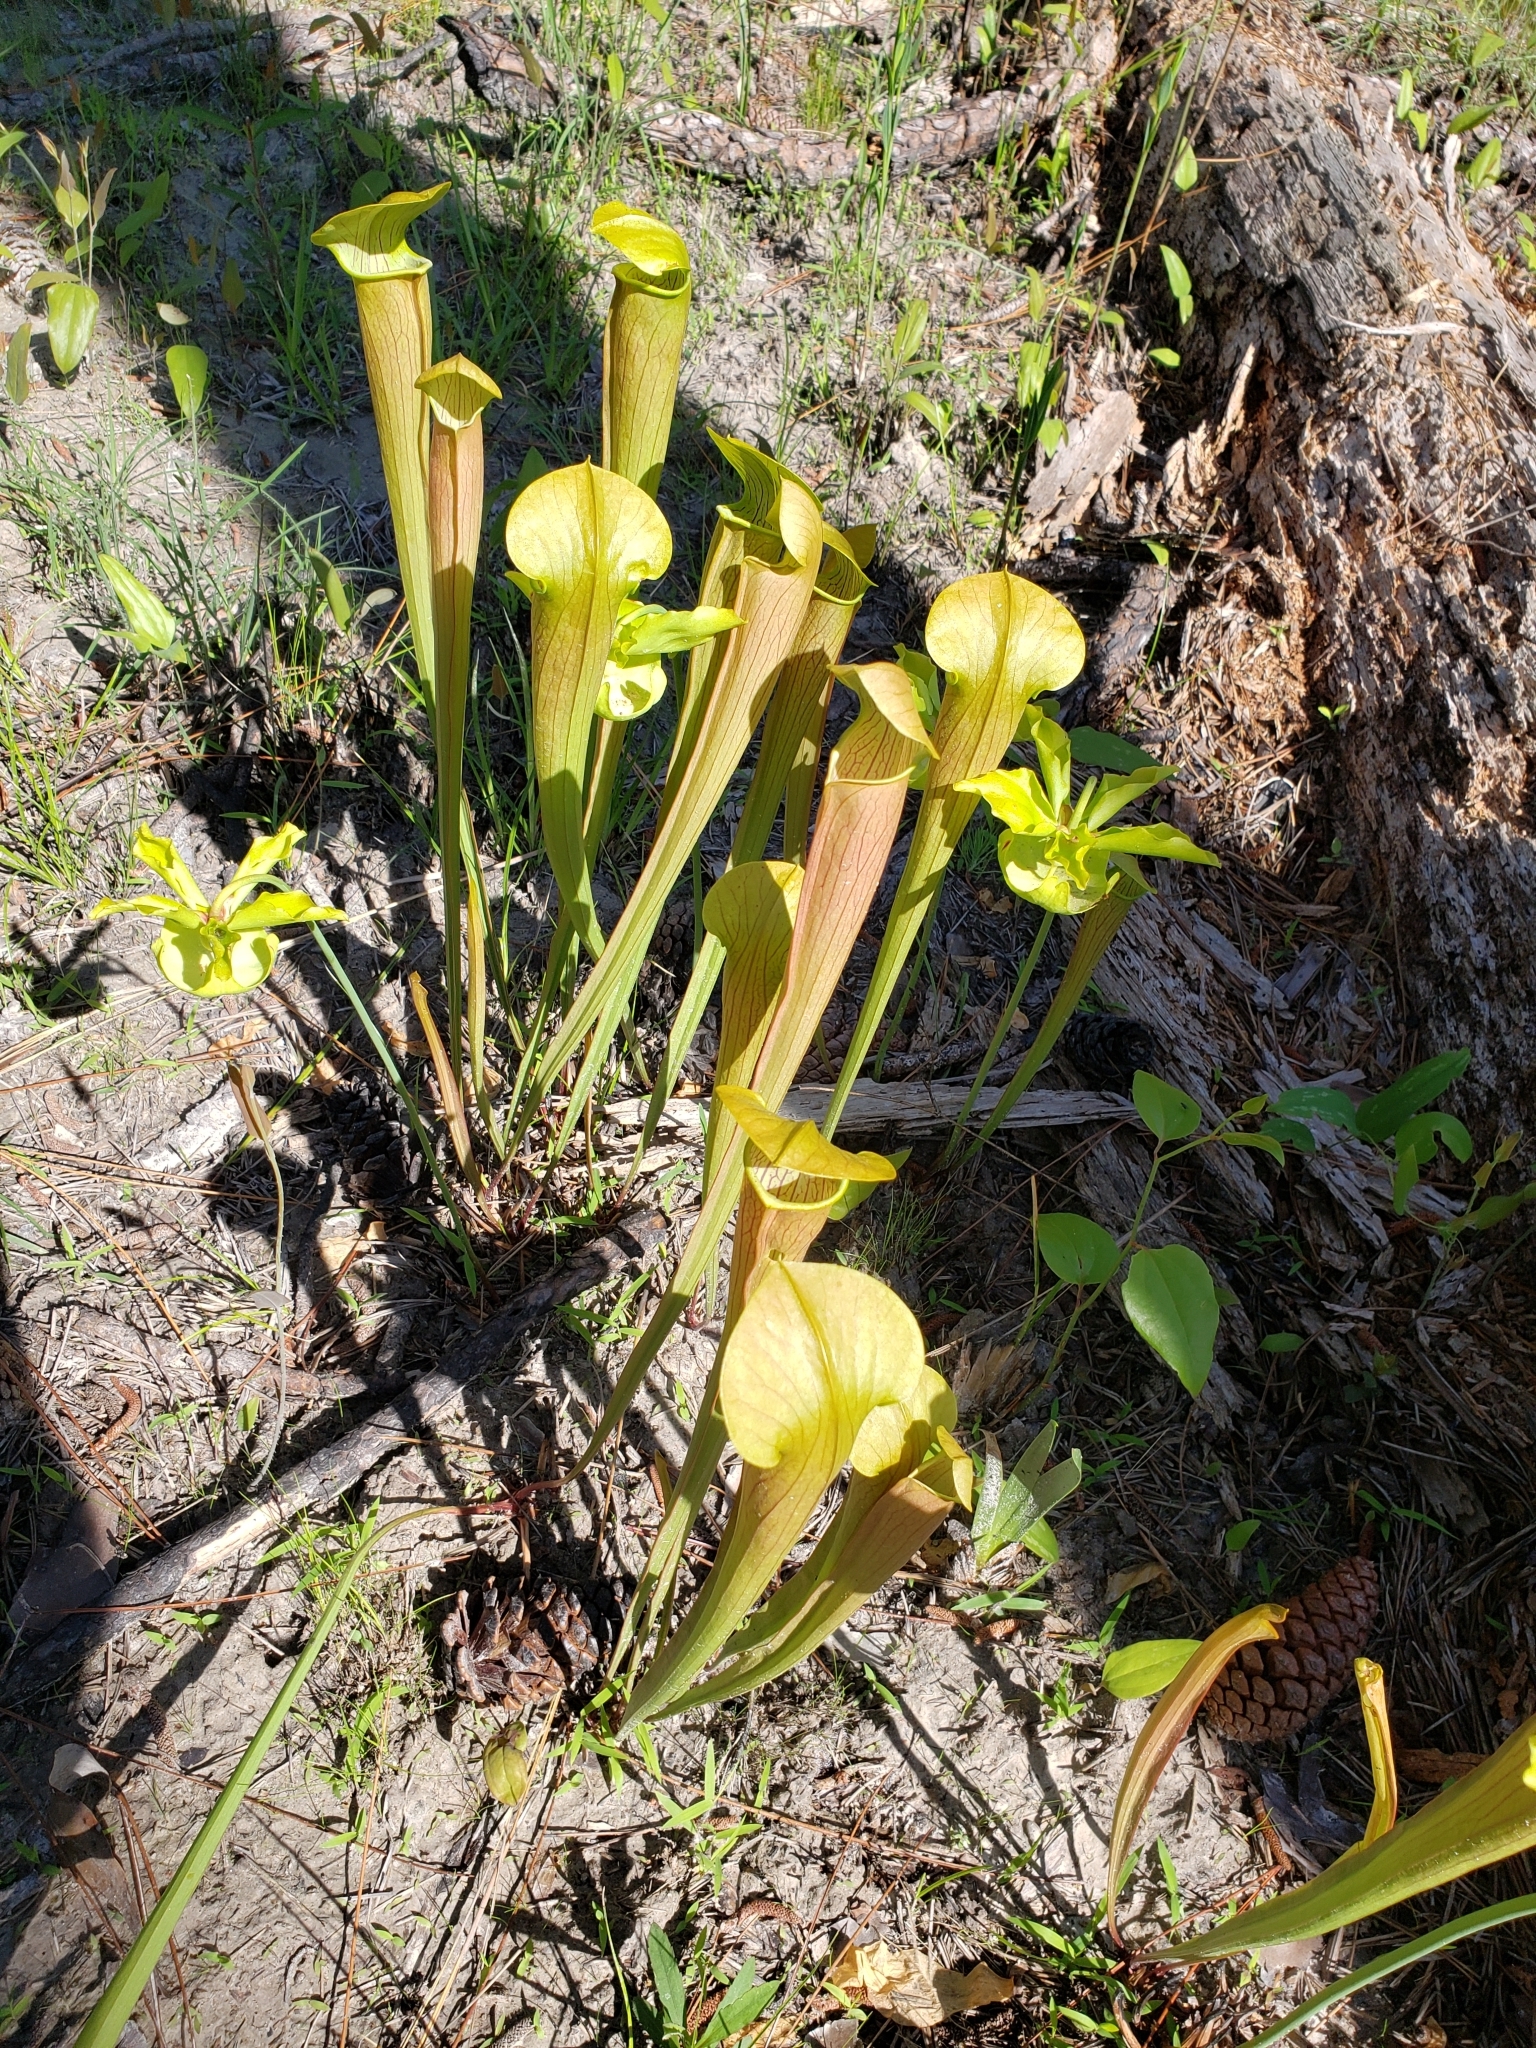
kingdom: Plantae
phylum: Tracheophyta
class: Magnoliopsida
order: Ericales
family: Sarraceniaceae
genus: Sarracenia
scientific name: Sarracenia alata
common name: Yellow trumpets
